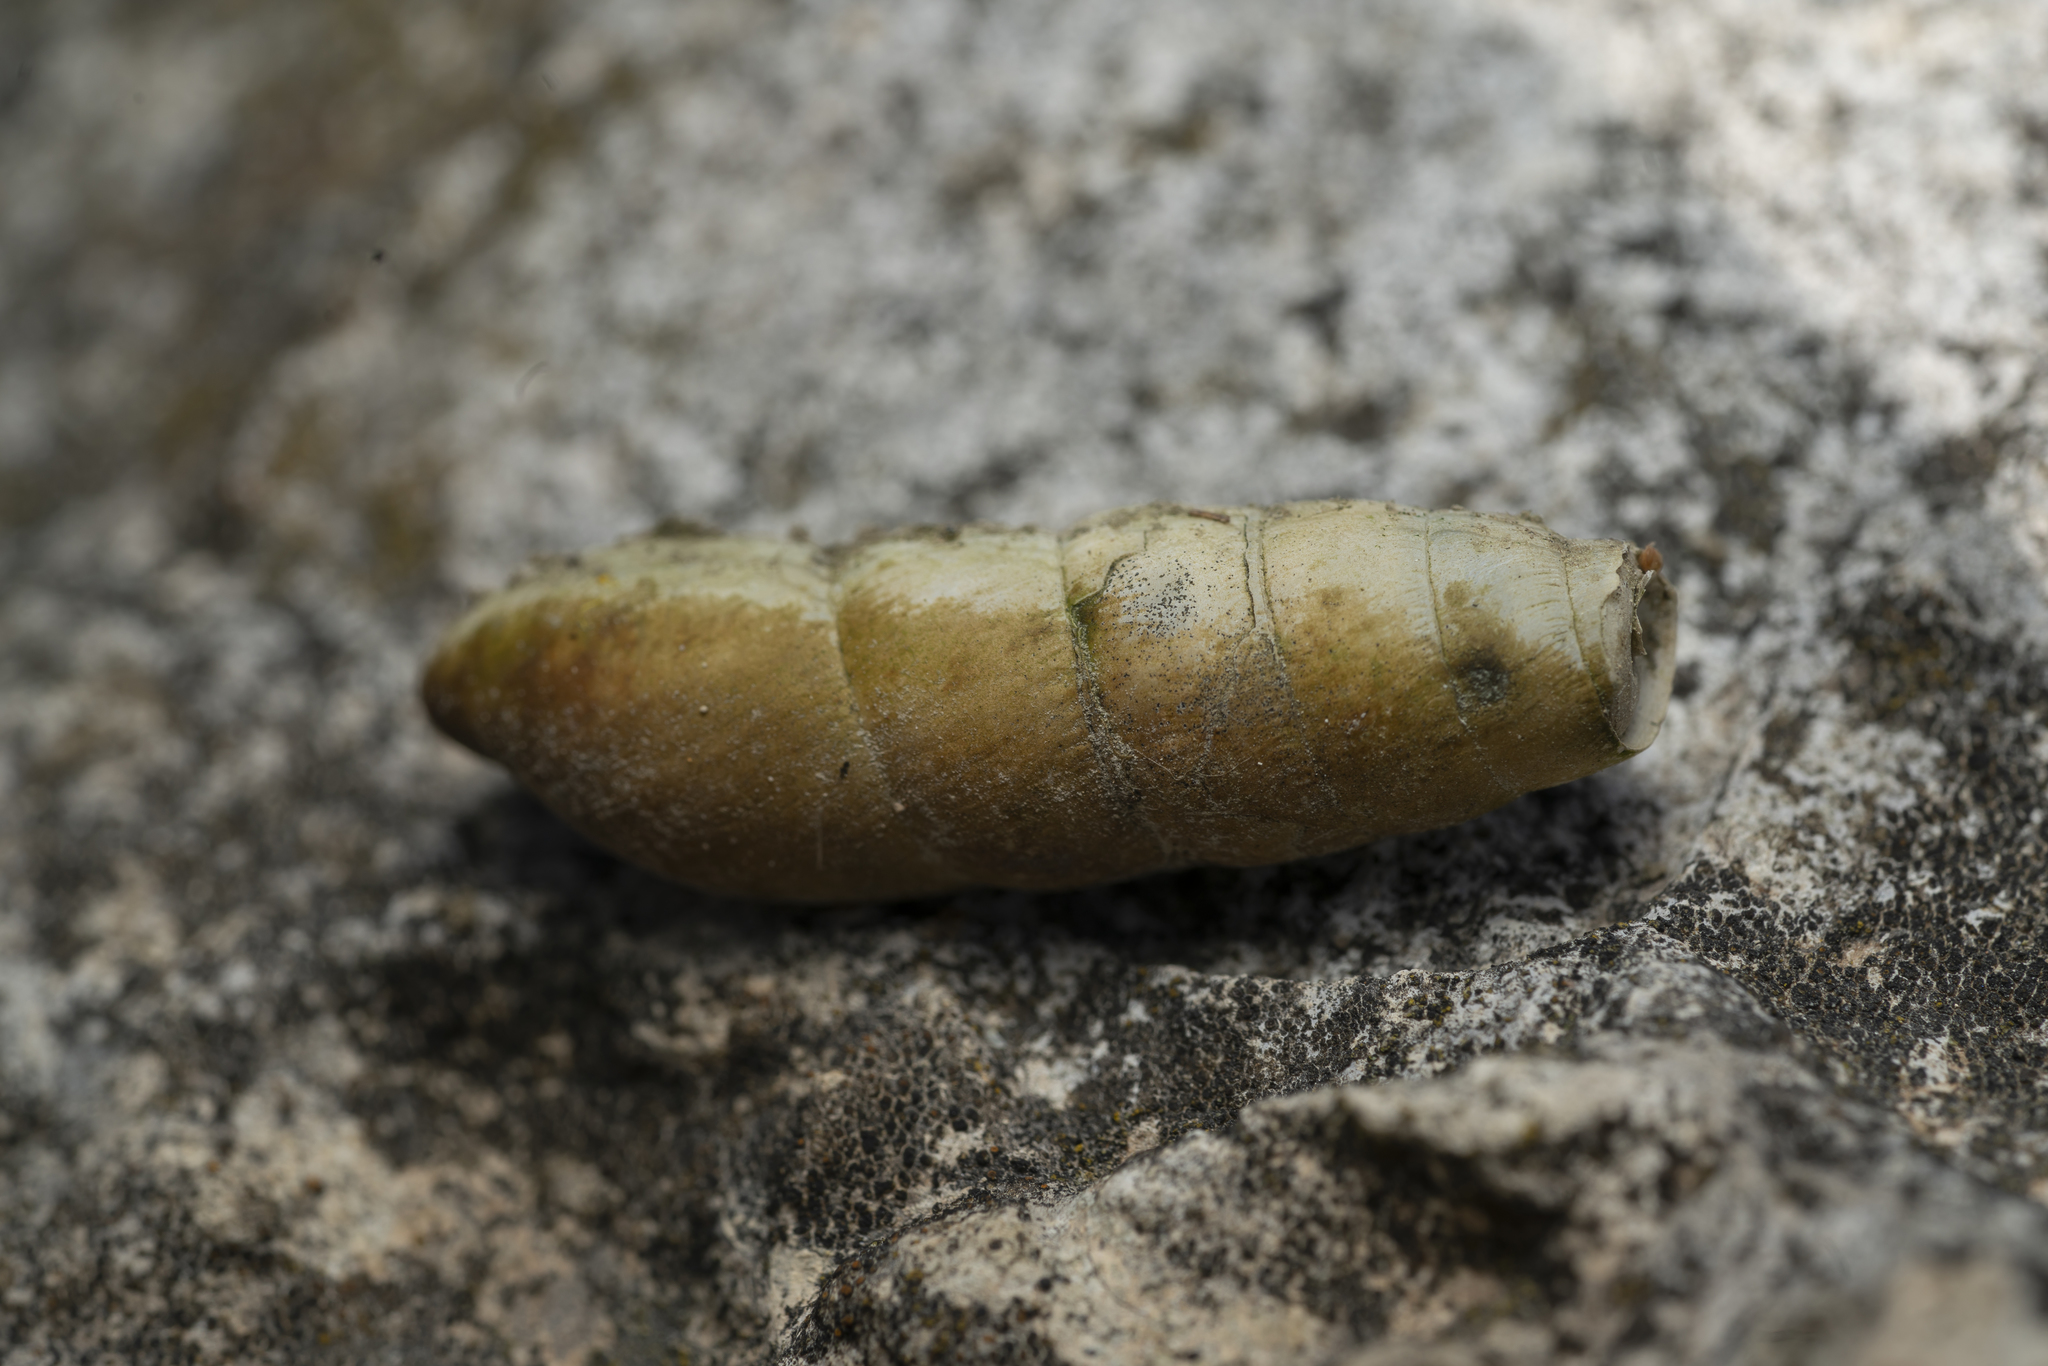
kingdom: Animalia
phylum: Mollusca
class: Gastropoda
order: Stylommatophora
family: Achatinidae
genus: Rumina
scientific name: Rumina saharica
